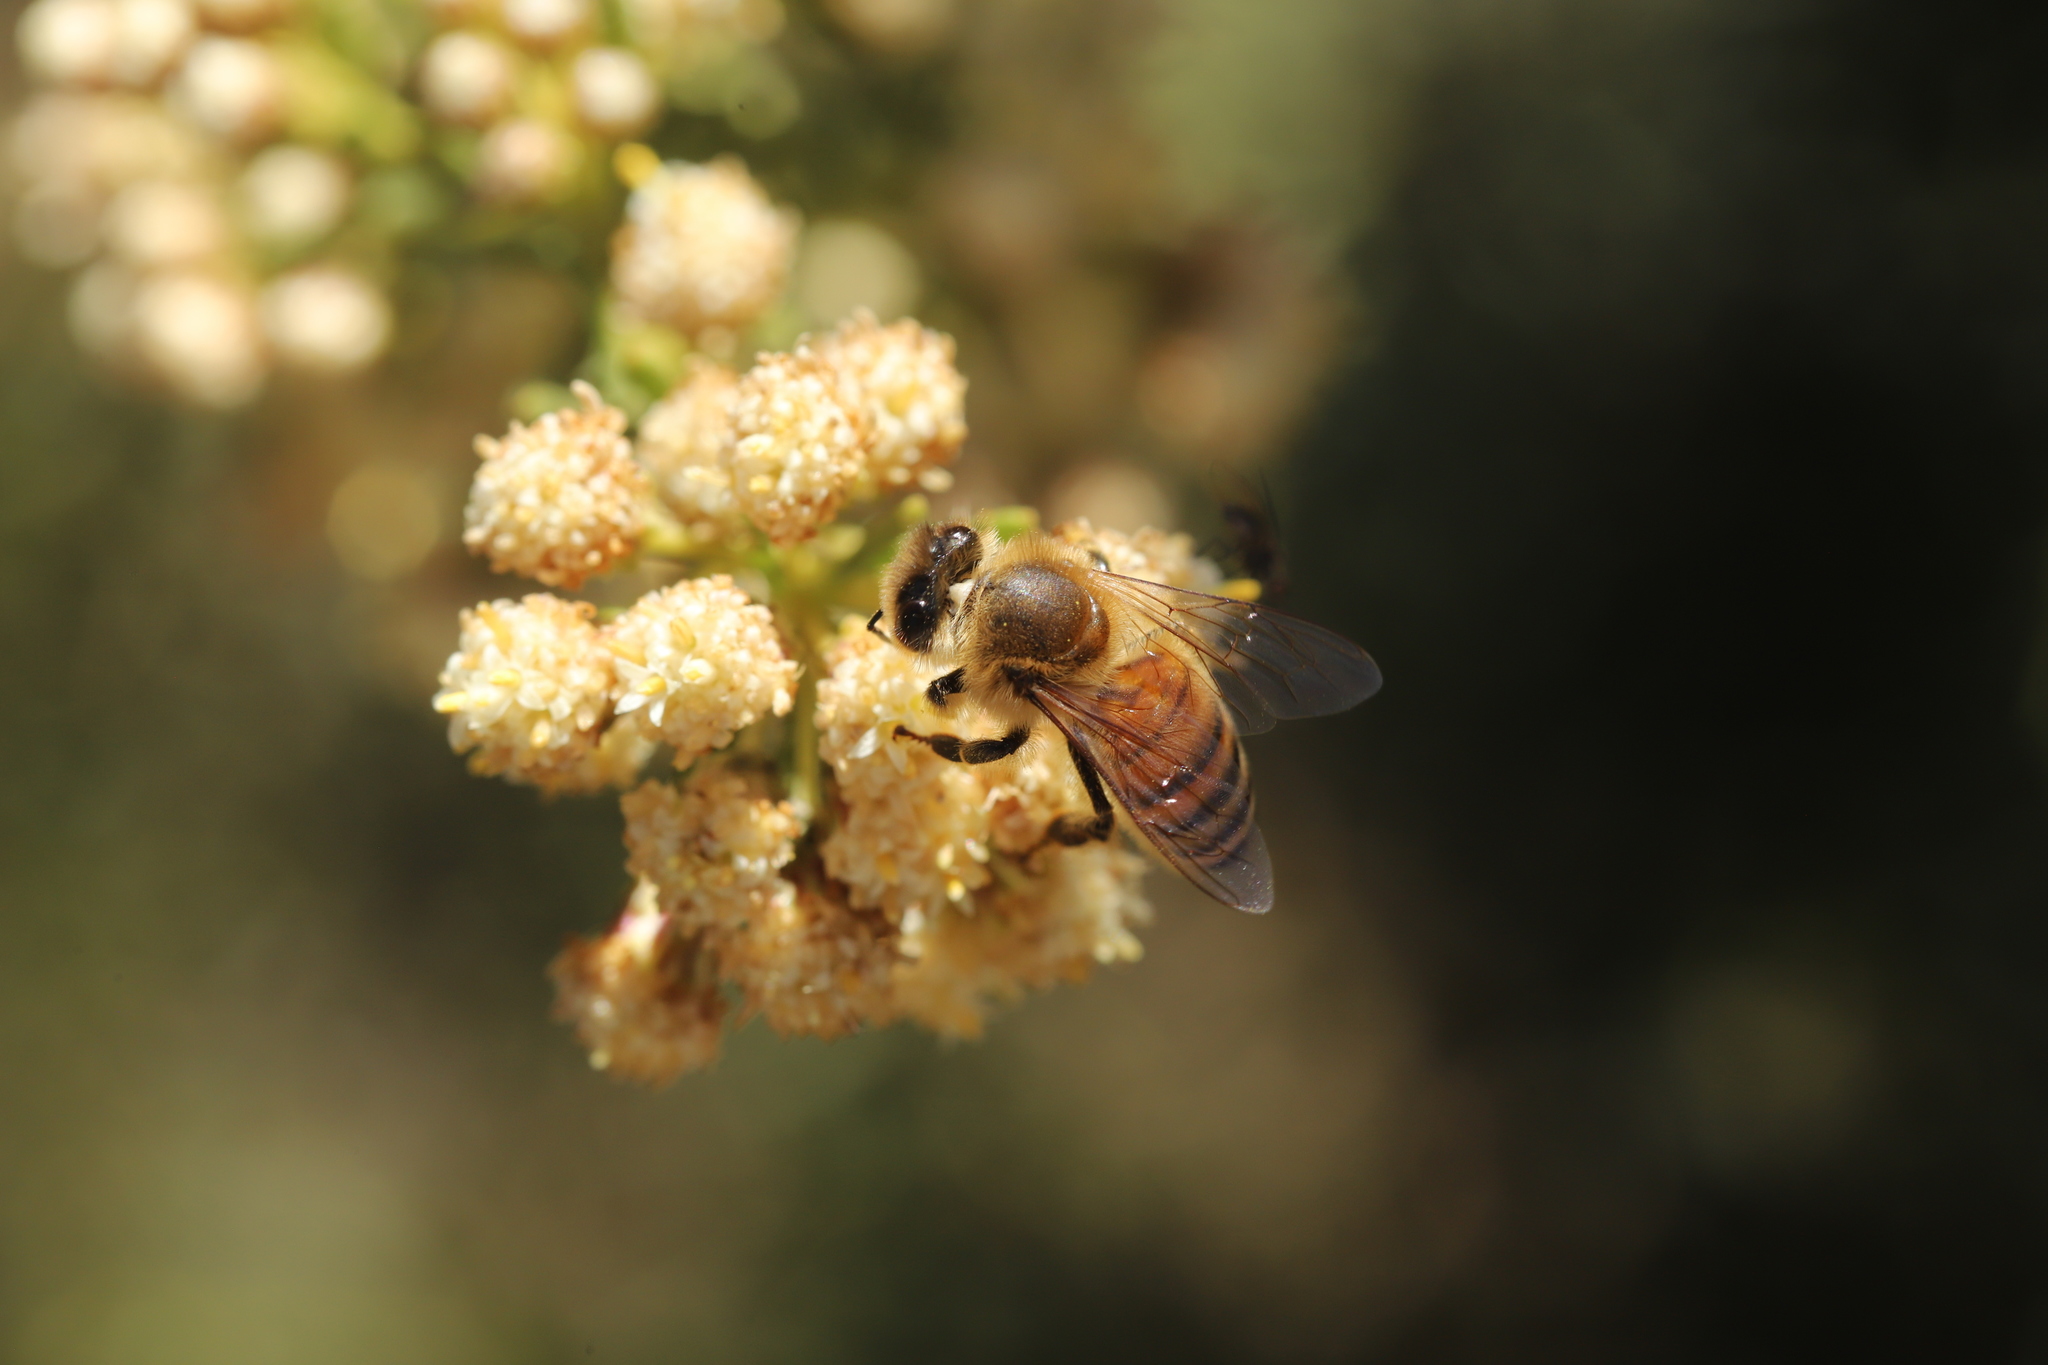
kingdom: Animalia
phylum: Arthropoda
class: Insecta
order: Hymenoptera
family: Apidae
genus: Apis
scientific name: Apis mellifera
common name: Honey bee
